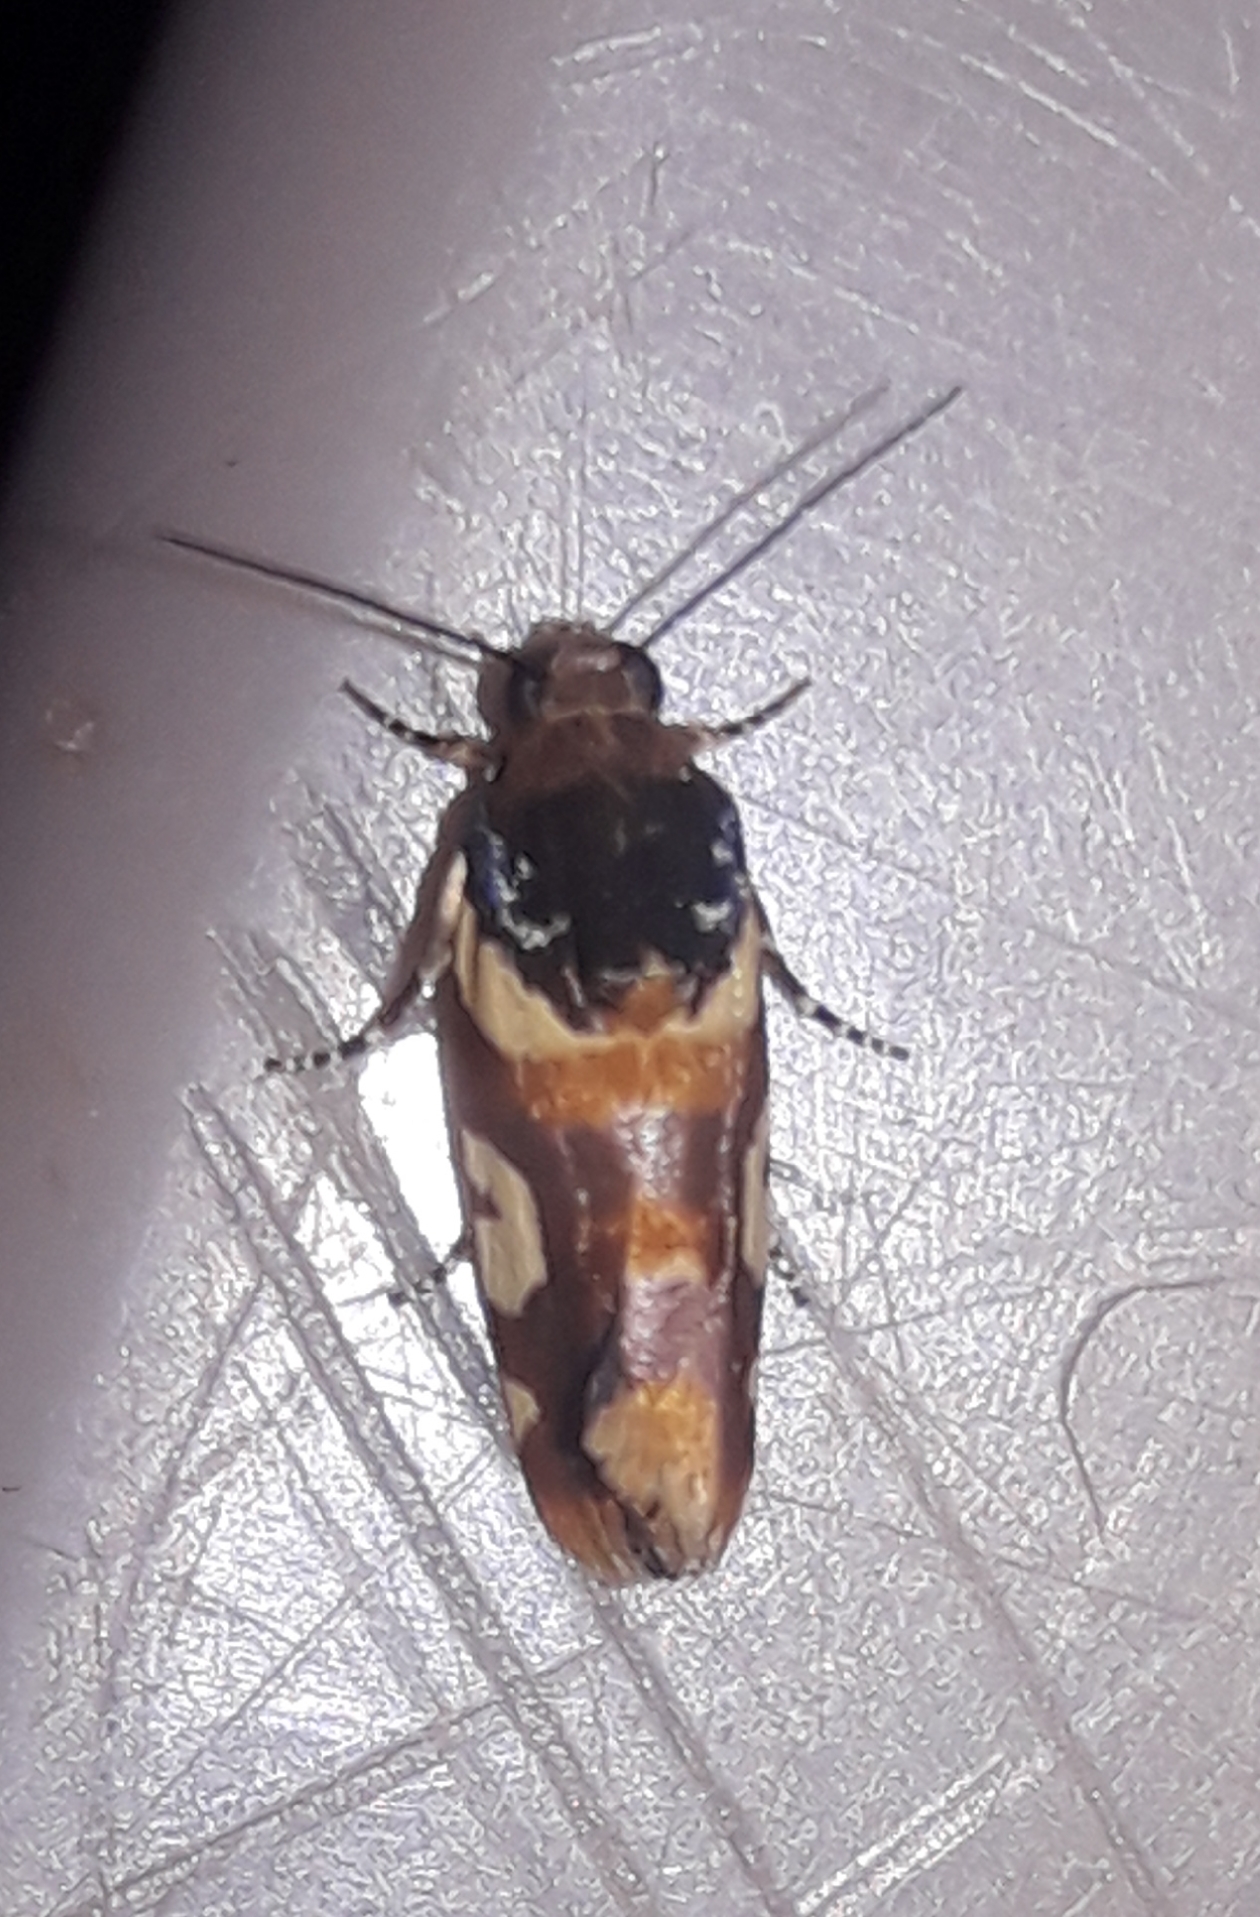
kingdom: Animalia
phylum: Arthropoda
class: Insecta
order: Lepidoptera
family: Noctuidae
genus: Acontia
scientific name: Acontia dama
